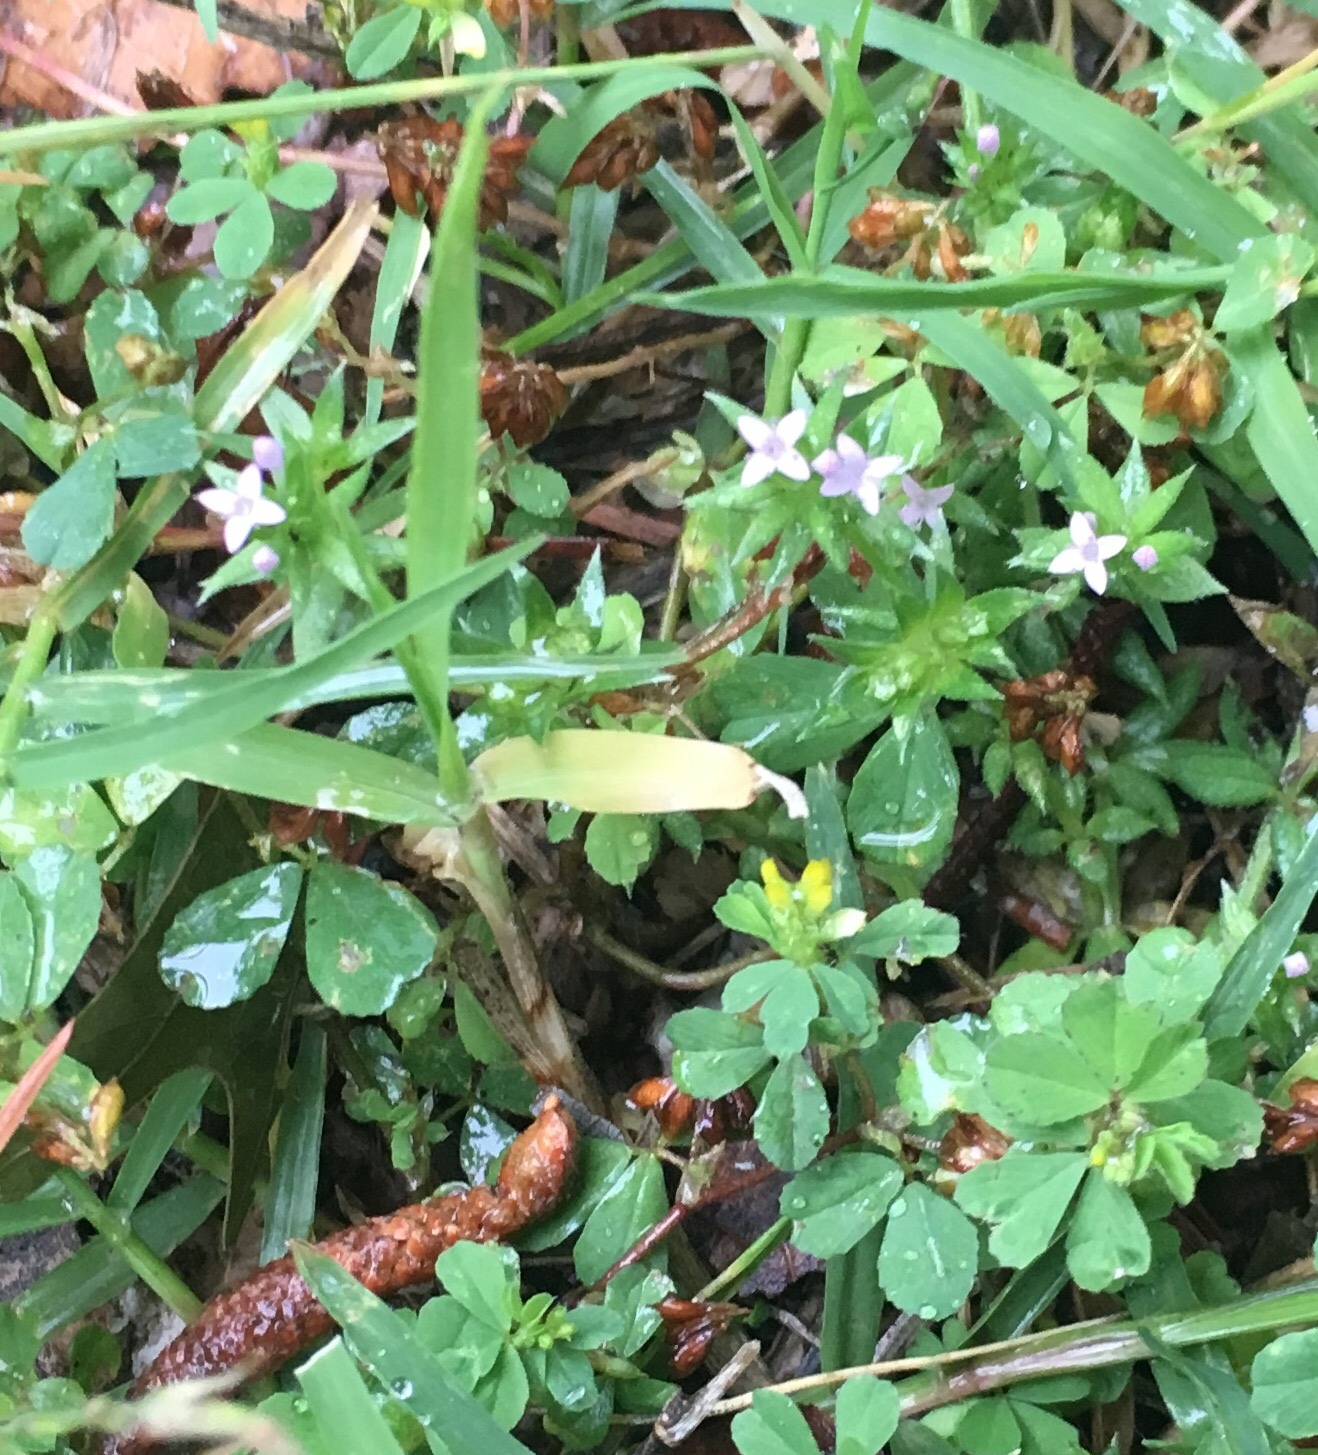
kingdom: Plantae
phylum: Tracheophyta
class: Magnoliopsida
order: Gentianales
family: Rubiaceae
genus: Sherardia
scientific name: Sherardia arvensis
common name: Field madder
